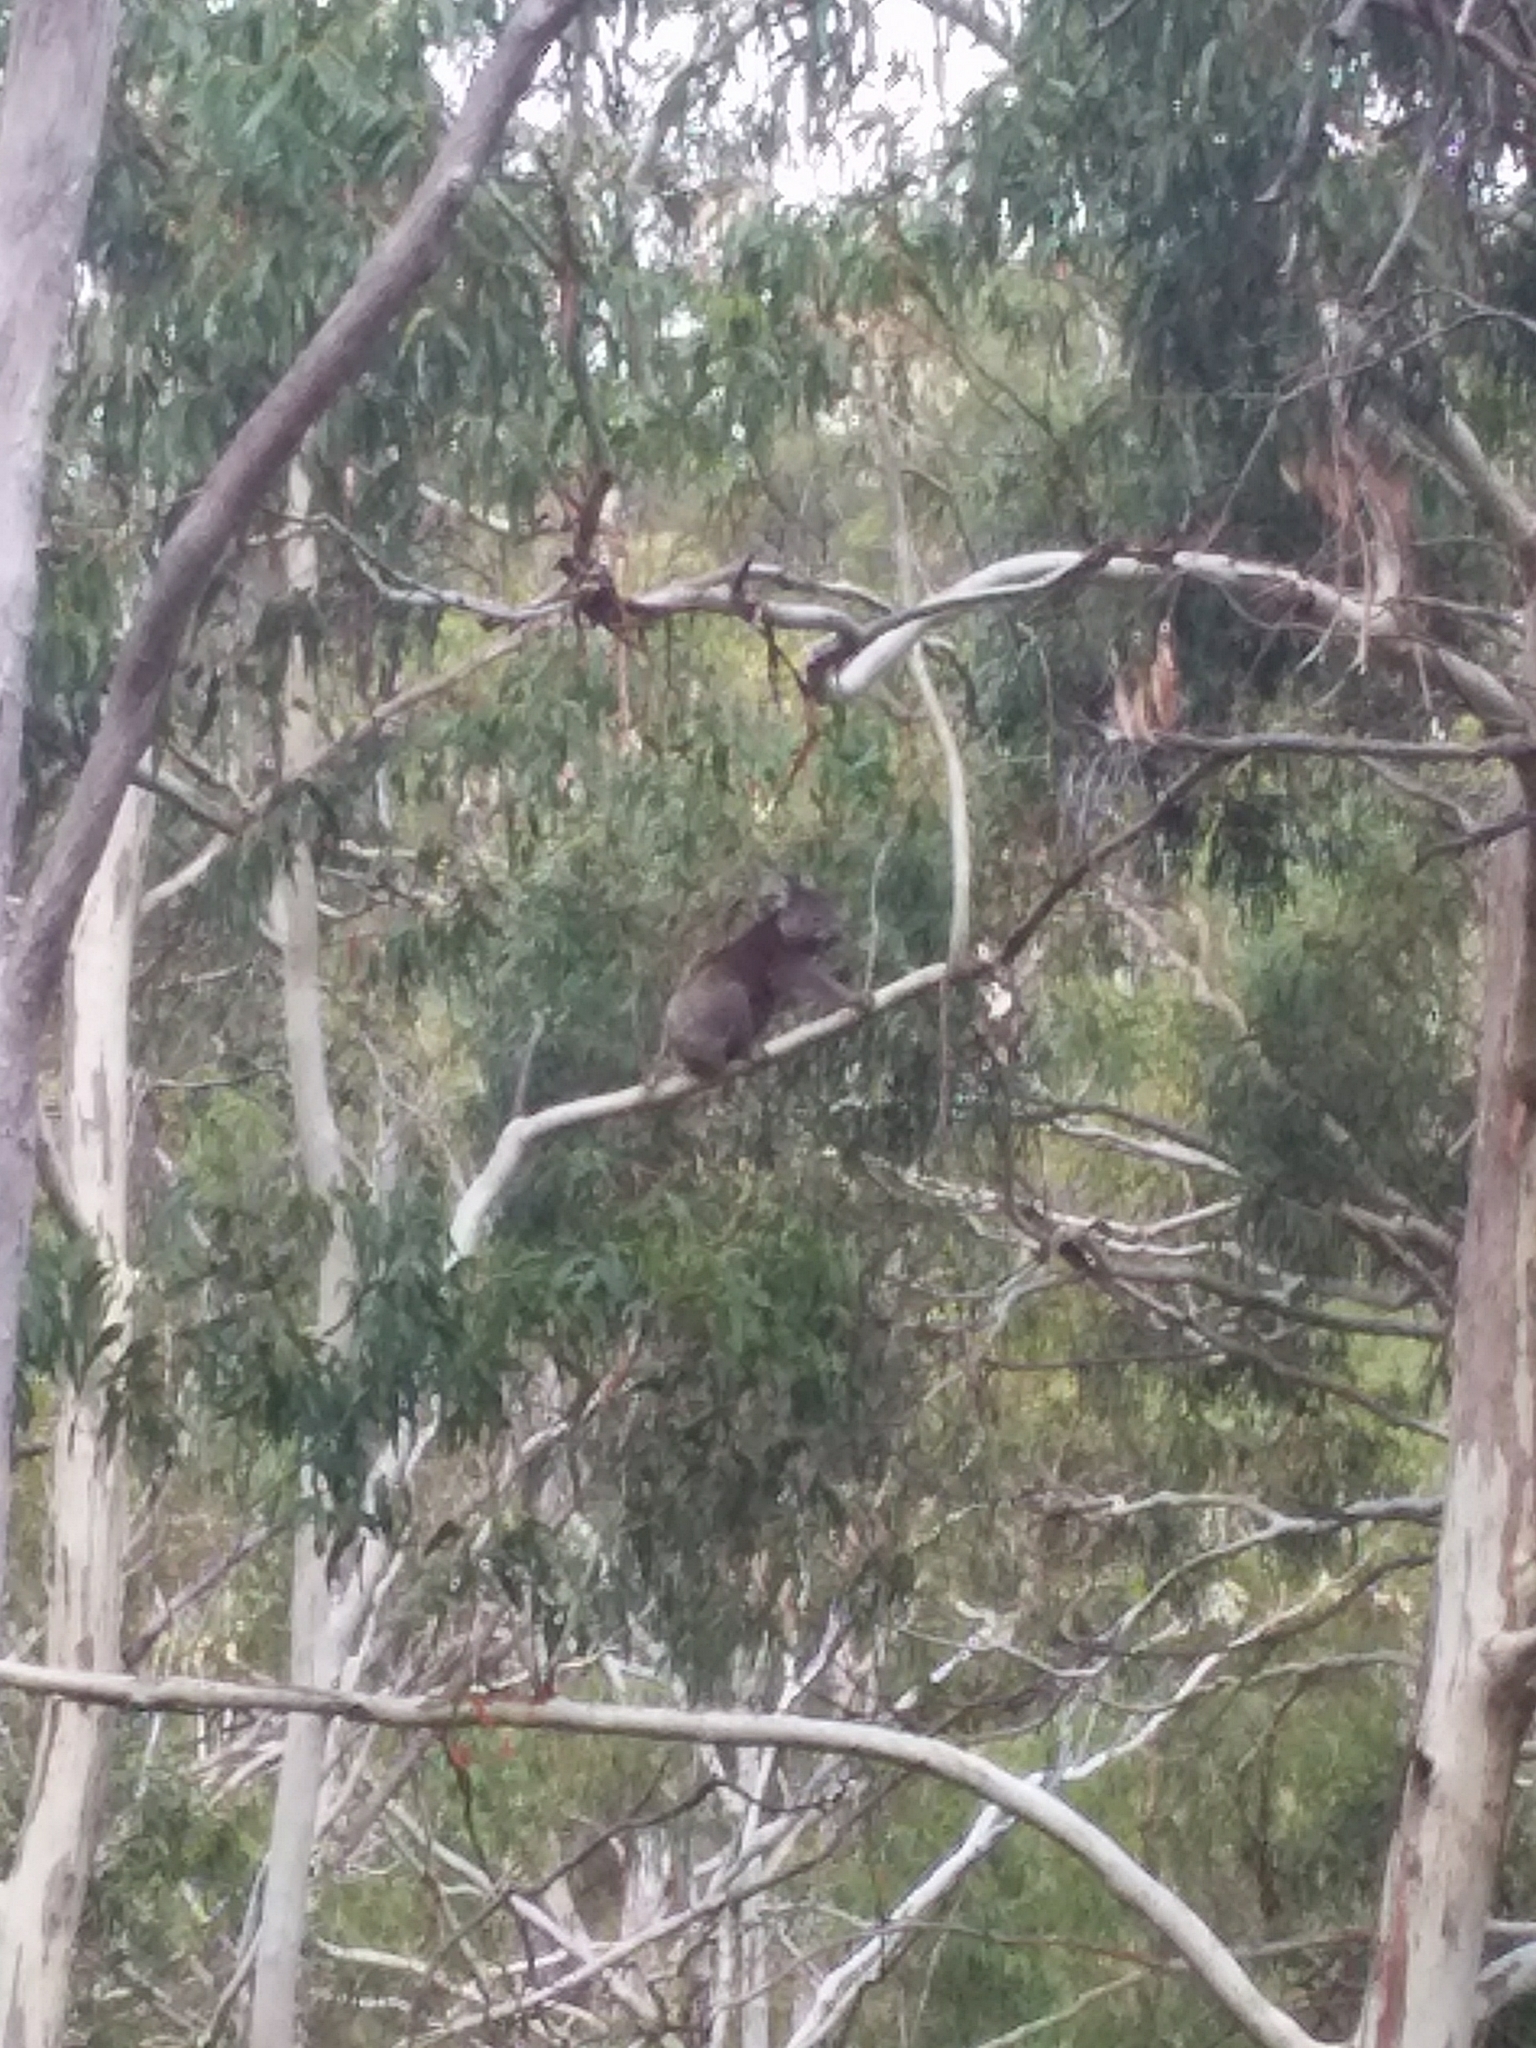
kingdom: Animalia
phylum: Chordata
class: Mammalia
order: Diprotodontia
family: Phascolarctidae
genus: Phascolarctos
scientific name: Phascolarctos cinereus
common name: Koala
